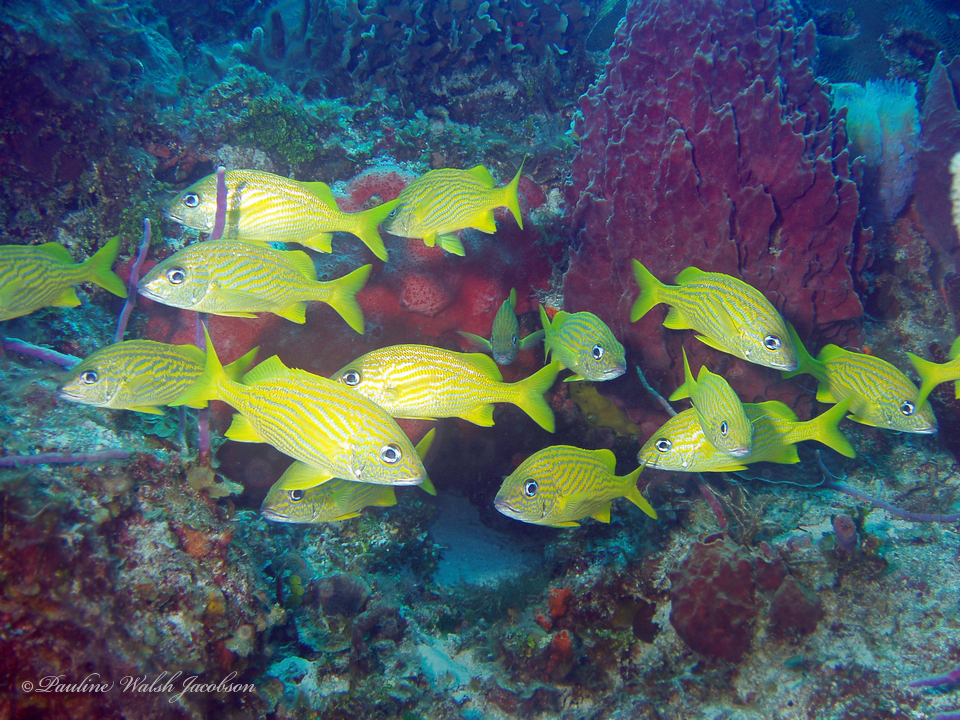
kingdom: Animalia
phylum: Chordata
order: Perciformes
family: Haemulidae
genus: Haemulon
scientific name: Haemulon flavolineatum
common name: French grunt
